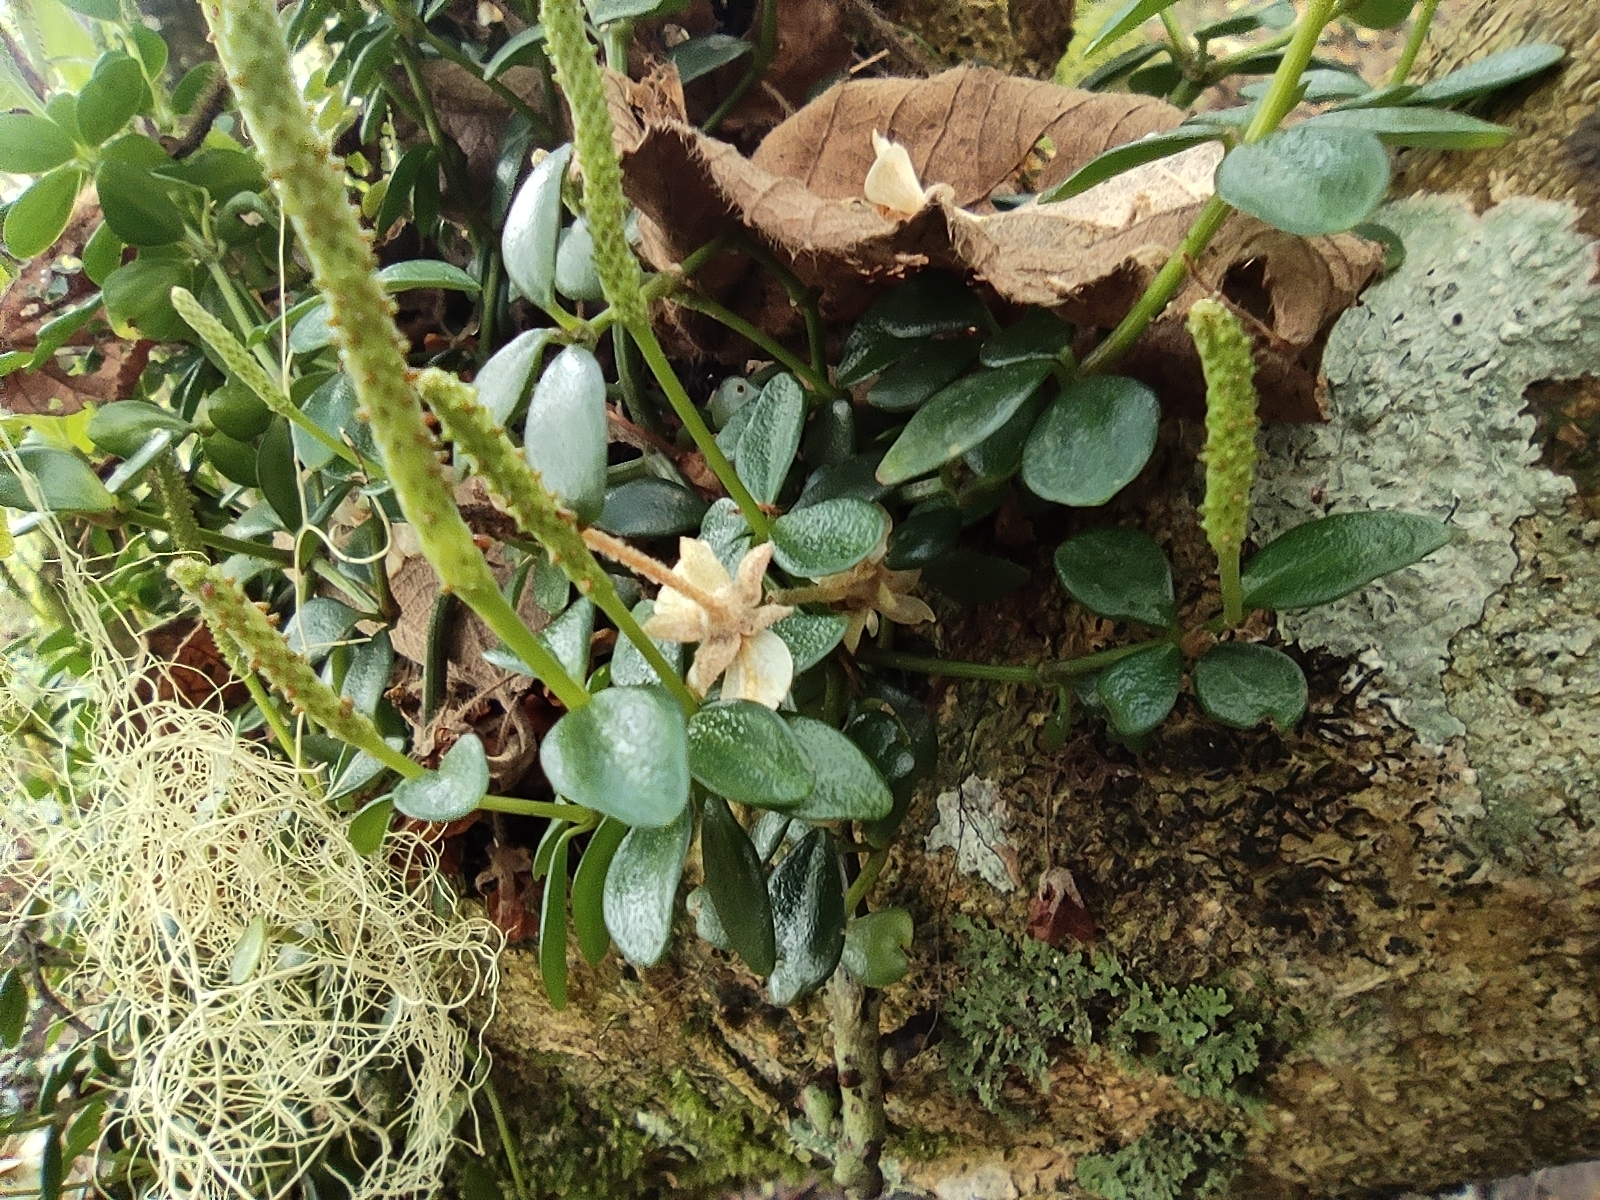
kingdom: Plantae
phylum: Tracheophyta
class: Magnoliopsida
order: Piperales
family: Piperaceae
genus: Peperomia
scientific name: Peperomia tetraphylla
